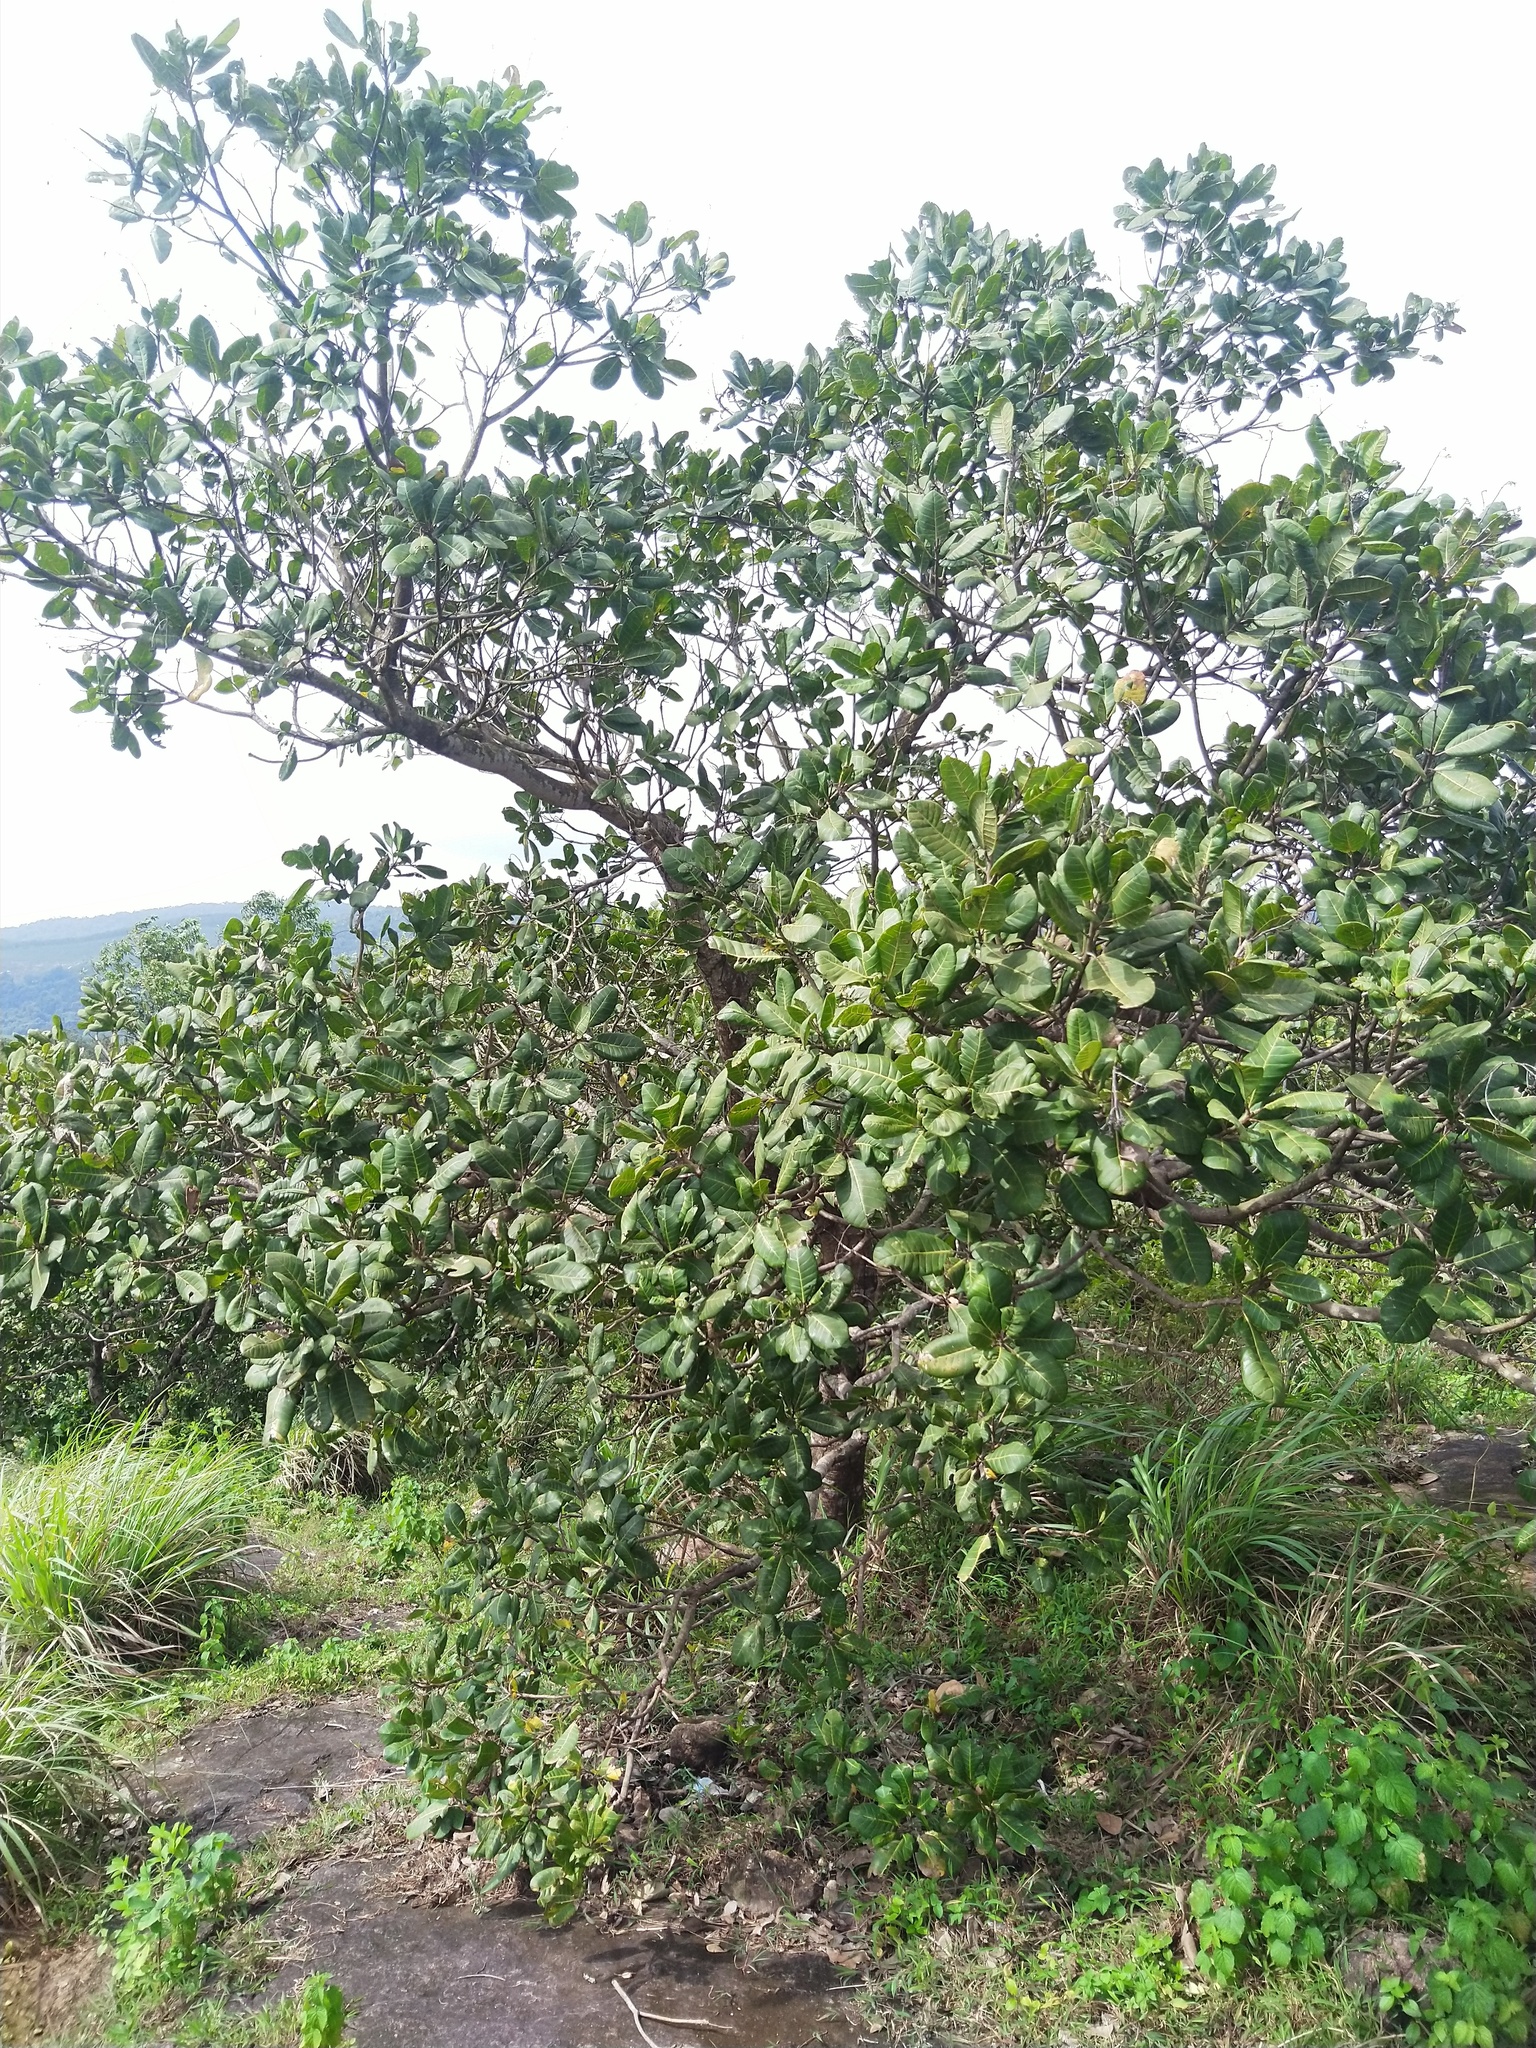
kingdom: Plantae
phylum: Tracheophyta
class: Magnoliopsida
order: Sapindales
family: Anacardiaceae
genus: Anacardium
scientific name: Anacardium occidentale
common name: Cashew
